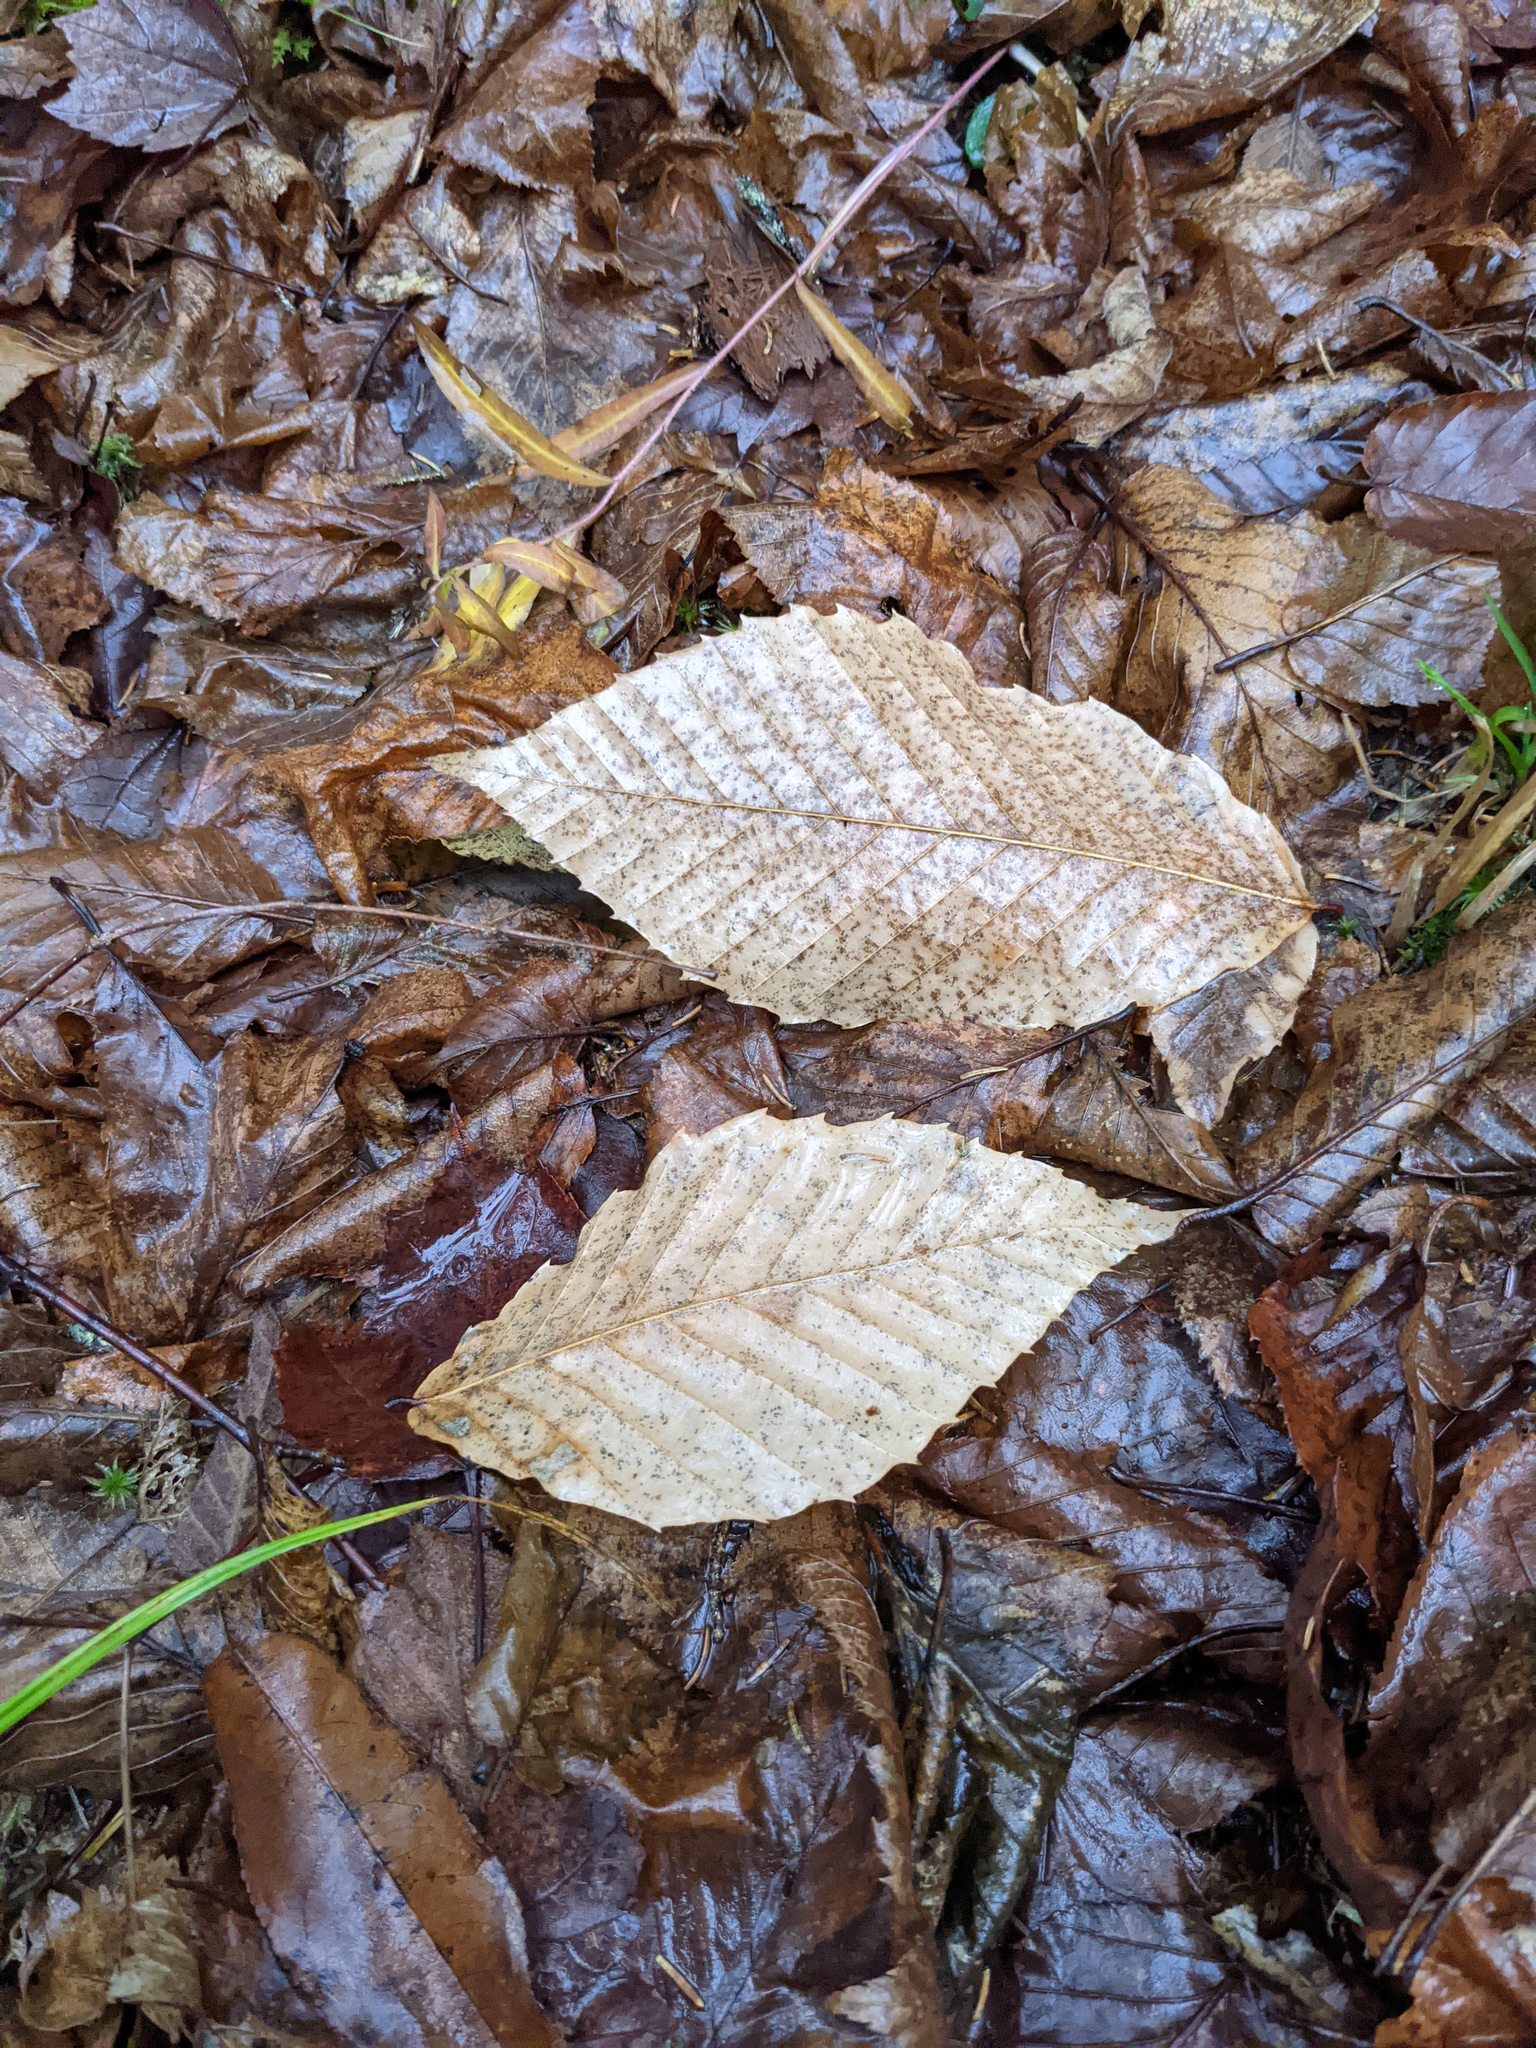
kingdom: Plantae
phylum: Tracheophyta
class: Magnoliopsida
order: Fagales
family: Fagaceae
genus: Fagus
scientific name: Fagus grandifolia
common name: American beech
